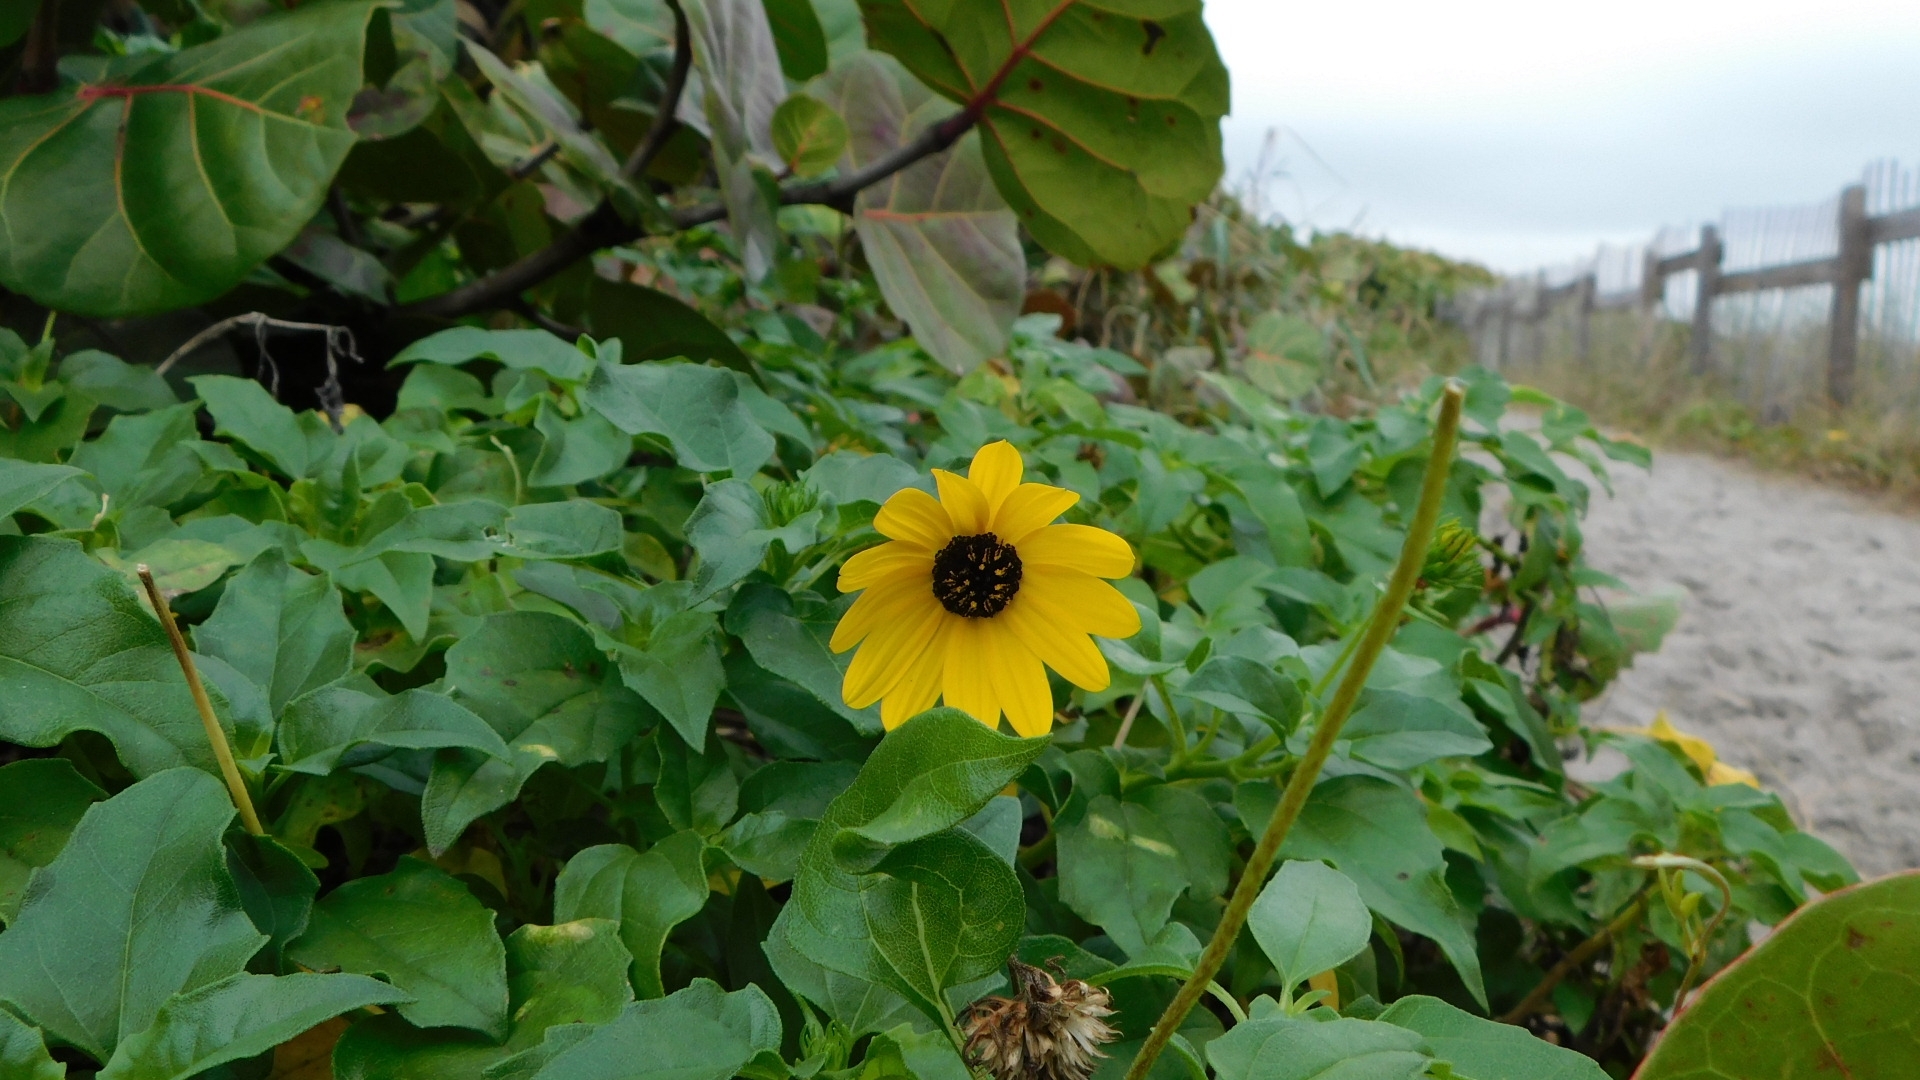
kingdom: Plantae
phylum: Tracheophyta
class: Magnoliopsida
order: Asterales
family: Asteraceae
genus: Helianthus
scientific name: Helianthus debilis
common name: Weak sunflower
